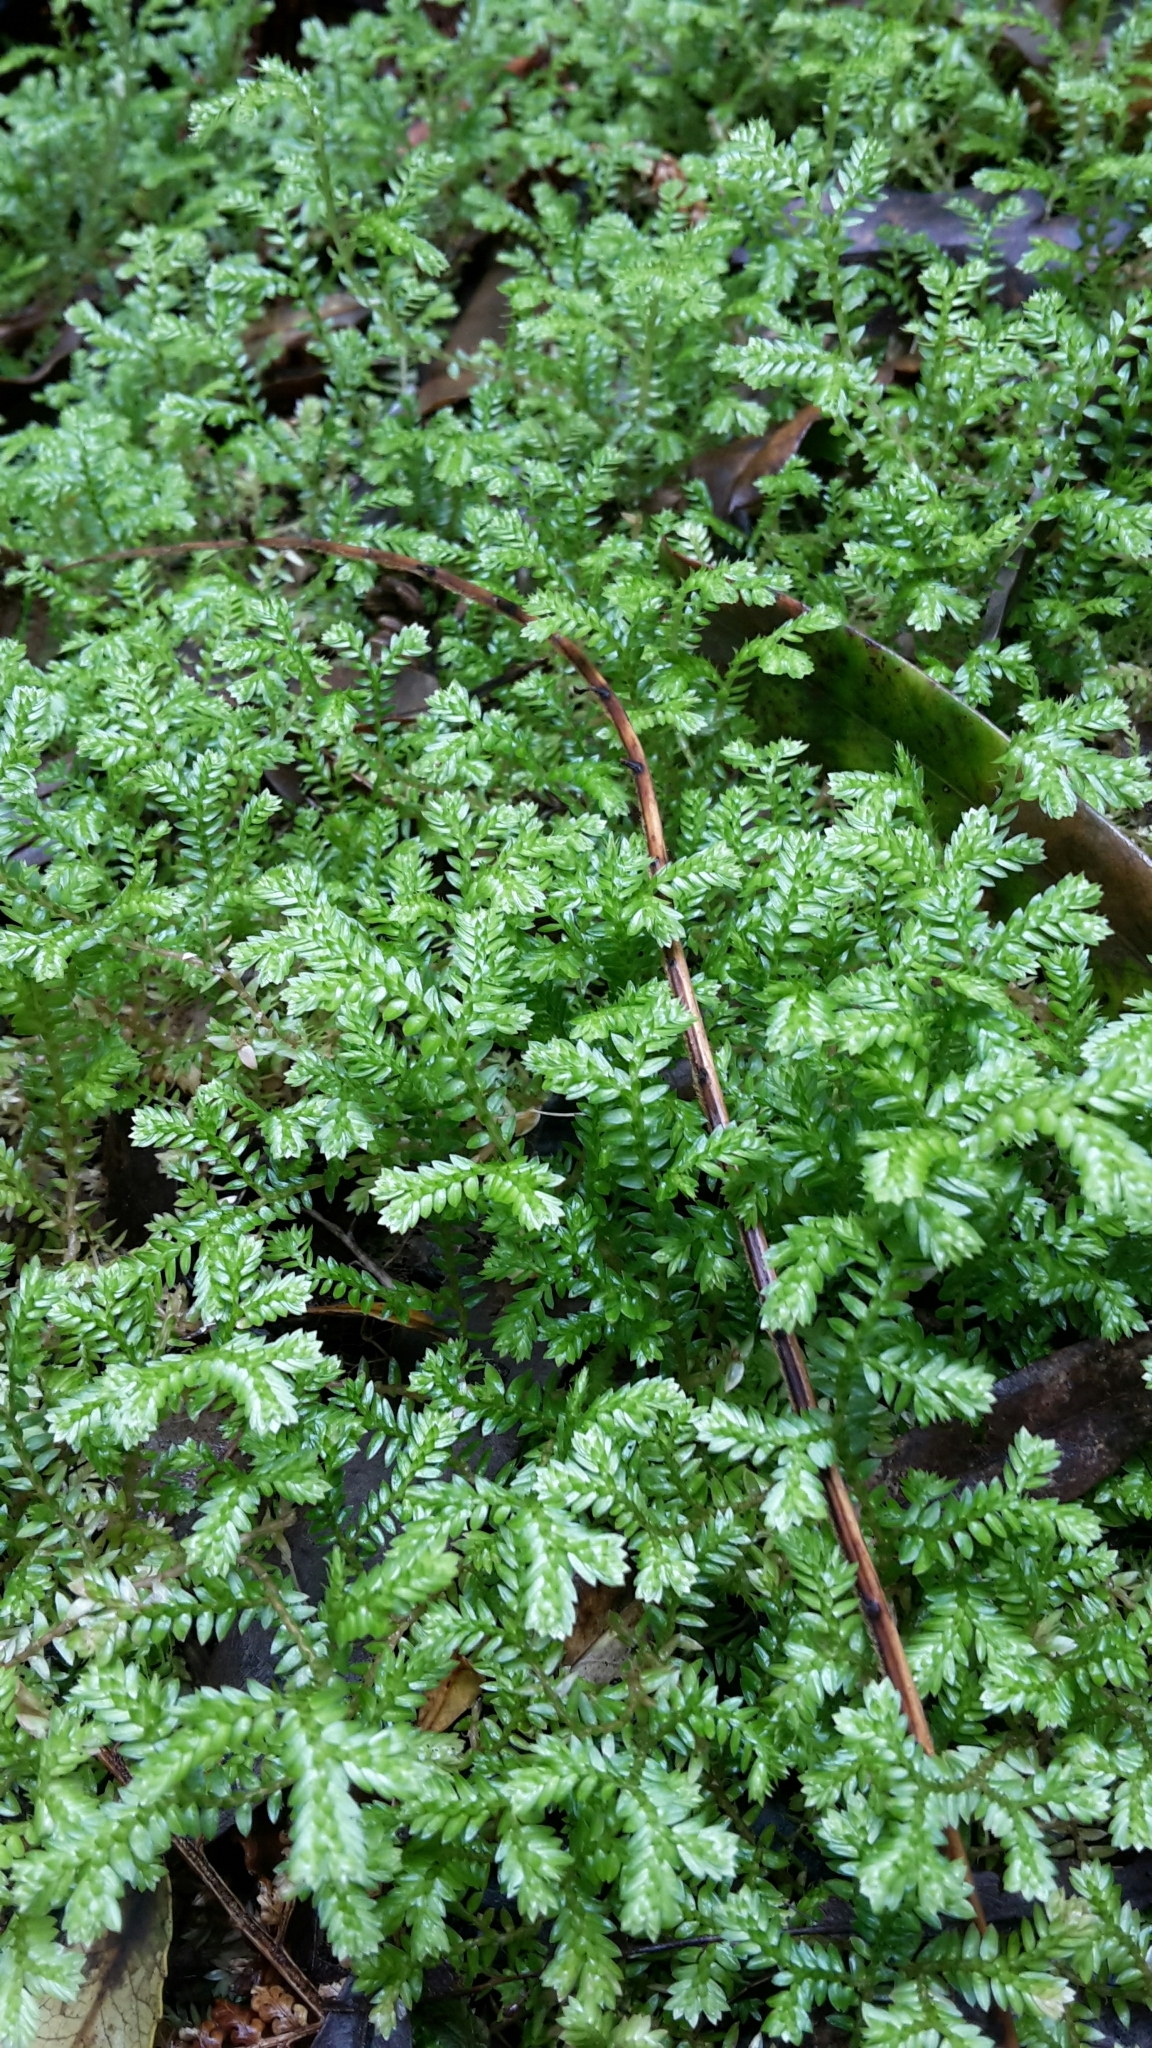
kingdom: Plantae
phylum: Tracheophyta
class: Lycopodiopsida
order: Selaginellales
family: Selaginellaceae
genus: Selaginella
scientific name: Selaginella kraussiana
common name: Krauss' spikemoss
